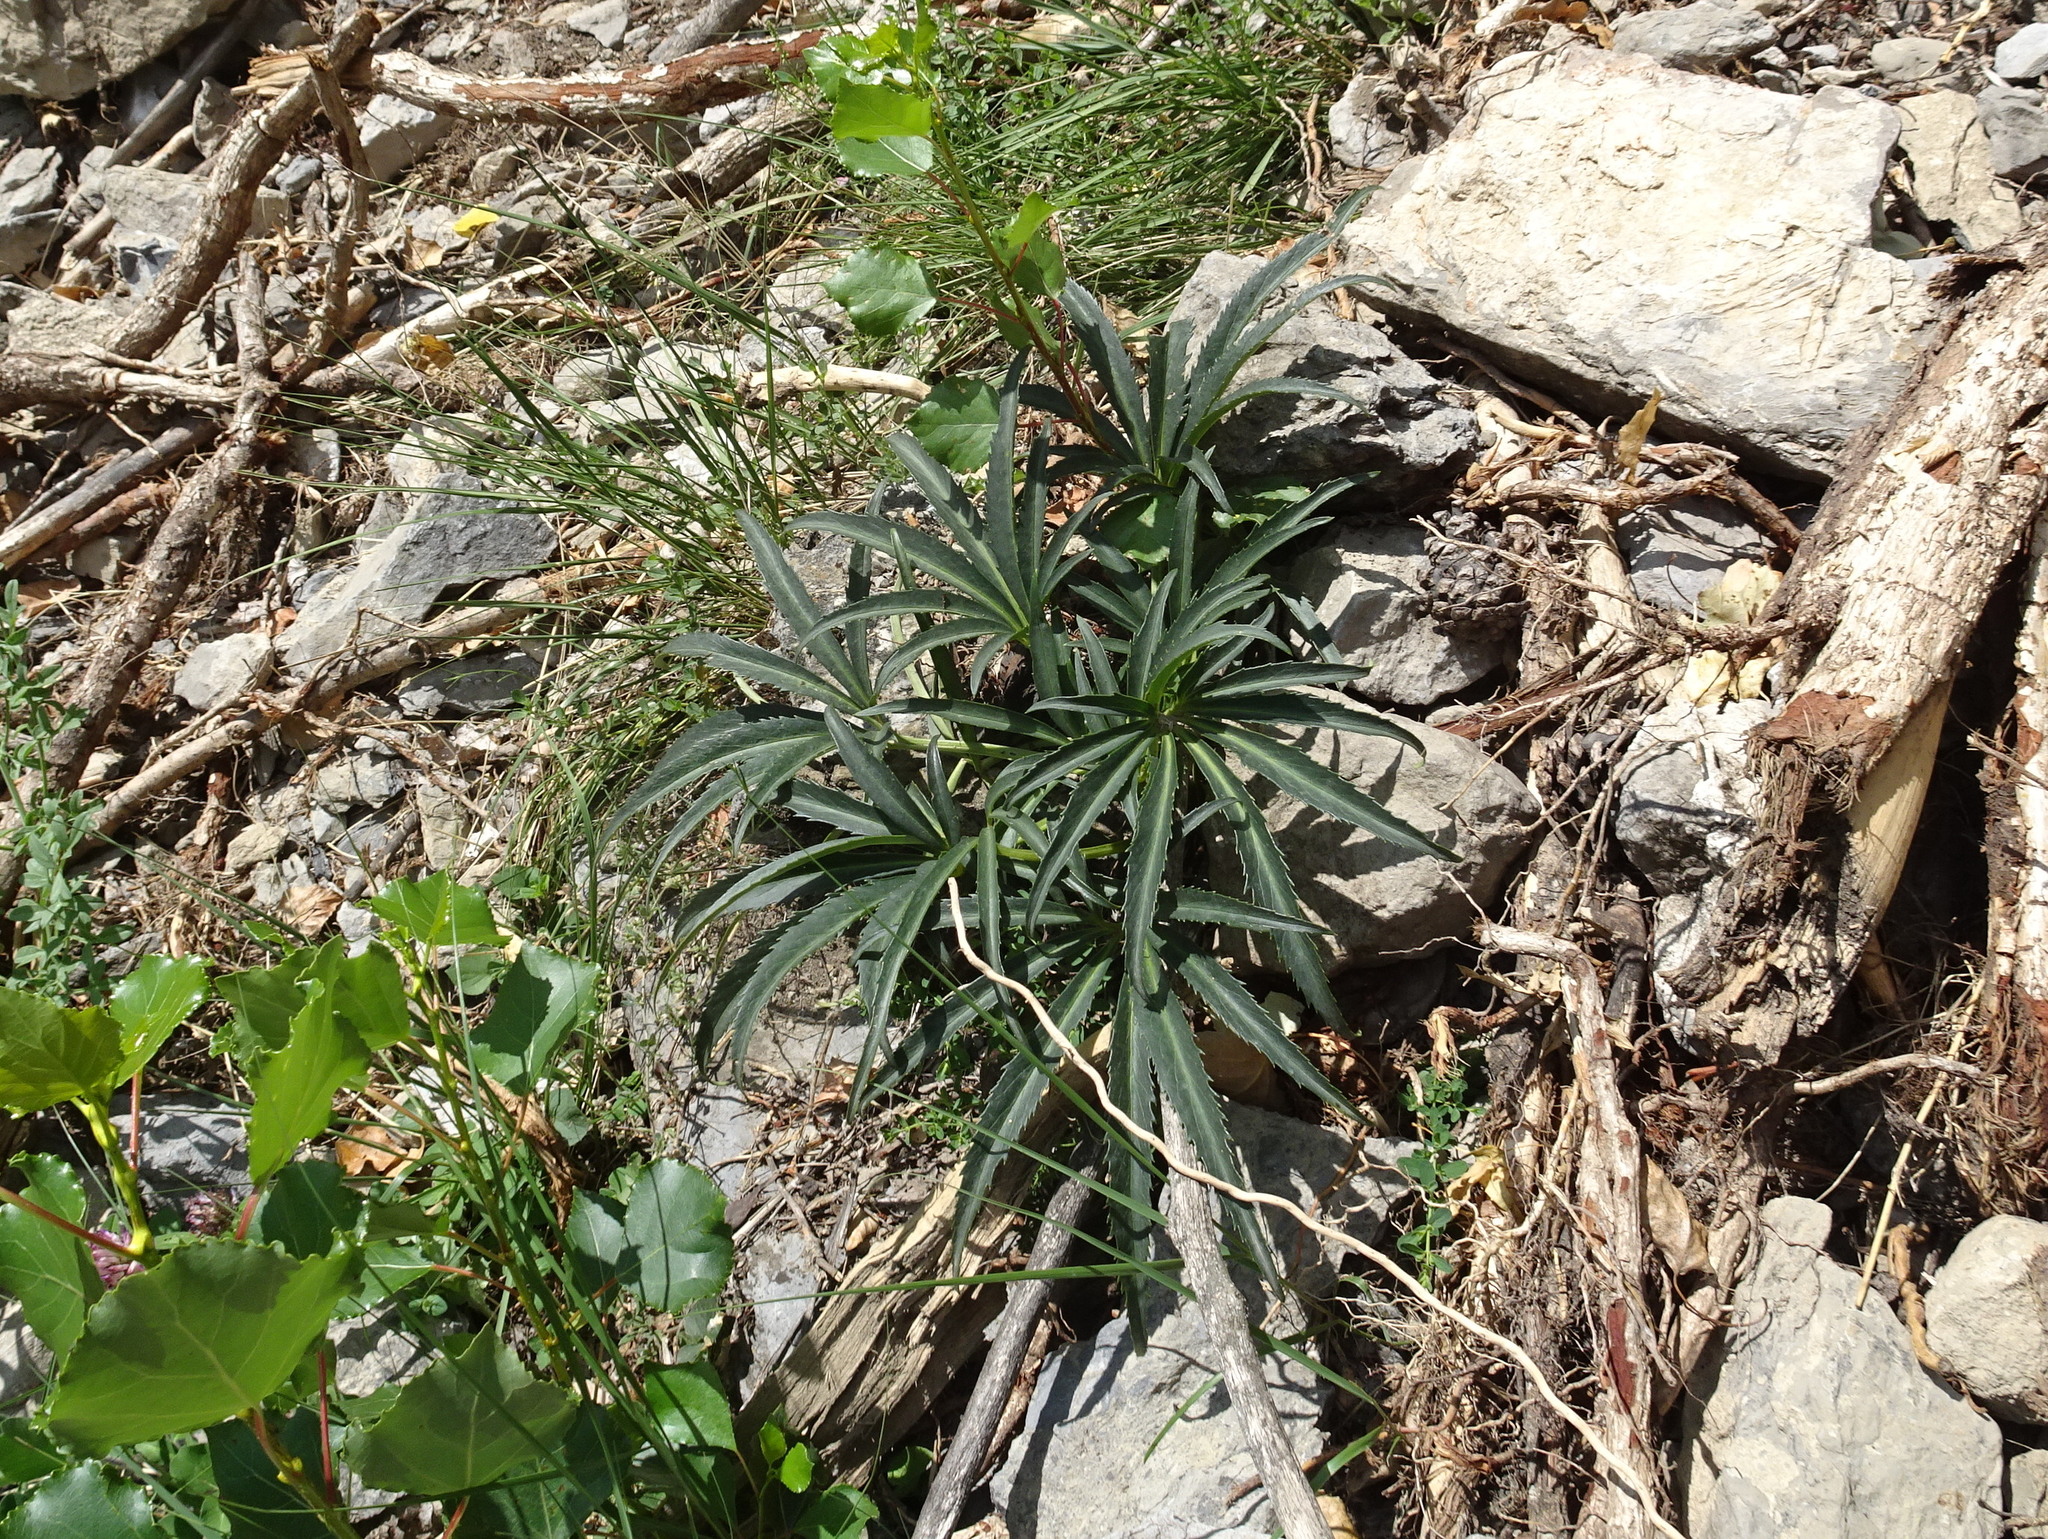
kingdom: Plantae
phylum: Tracheophyta
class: Magnoliopsida
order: Ranunculales
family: Ranunculaceae
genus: Helleborus
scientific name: Helleborus foetidus
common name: Stinking hellebore
